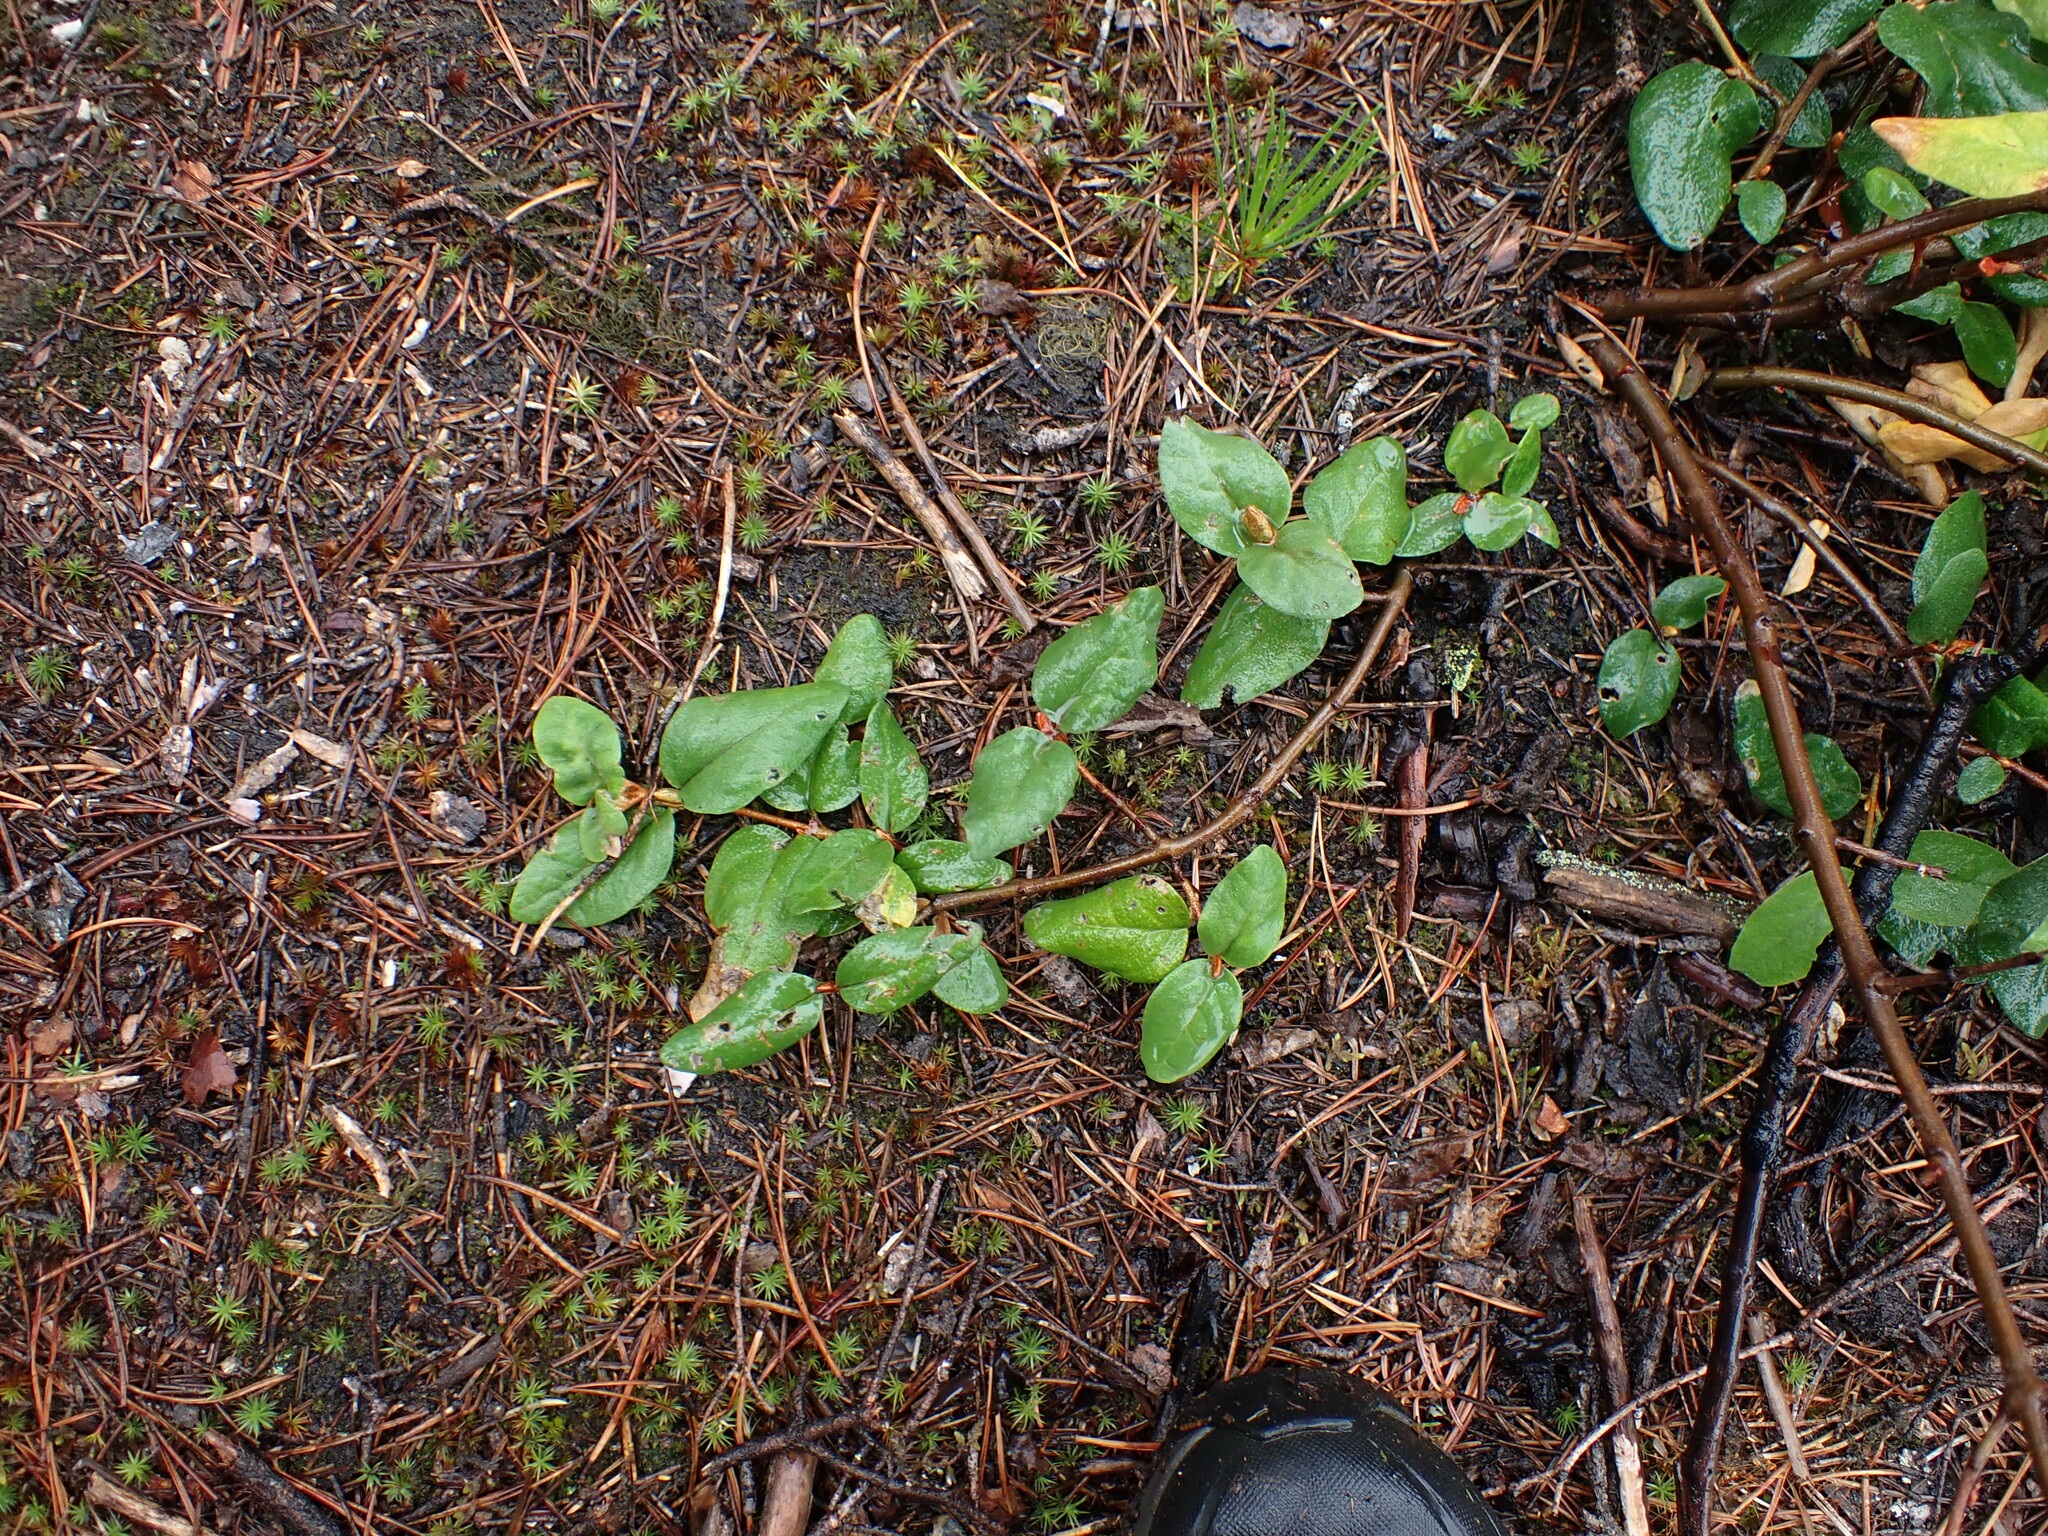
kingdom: Plantae
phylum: Tracheophyta
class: Magnoliopsida
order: Rosales
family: Elaeagnaceae
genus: Shepherdia
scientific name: Shepherdia canadensis
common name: Soapberry
